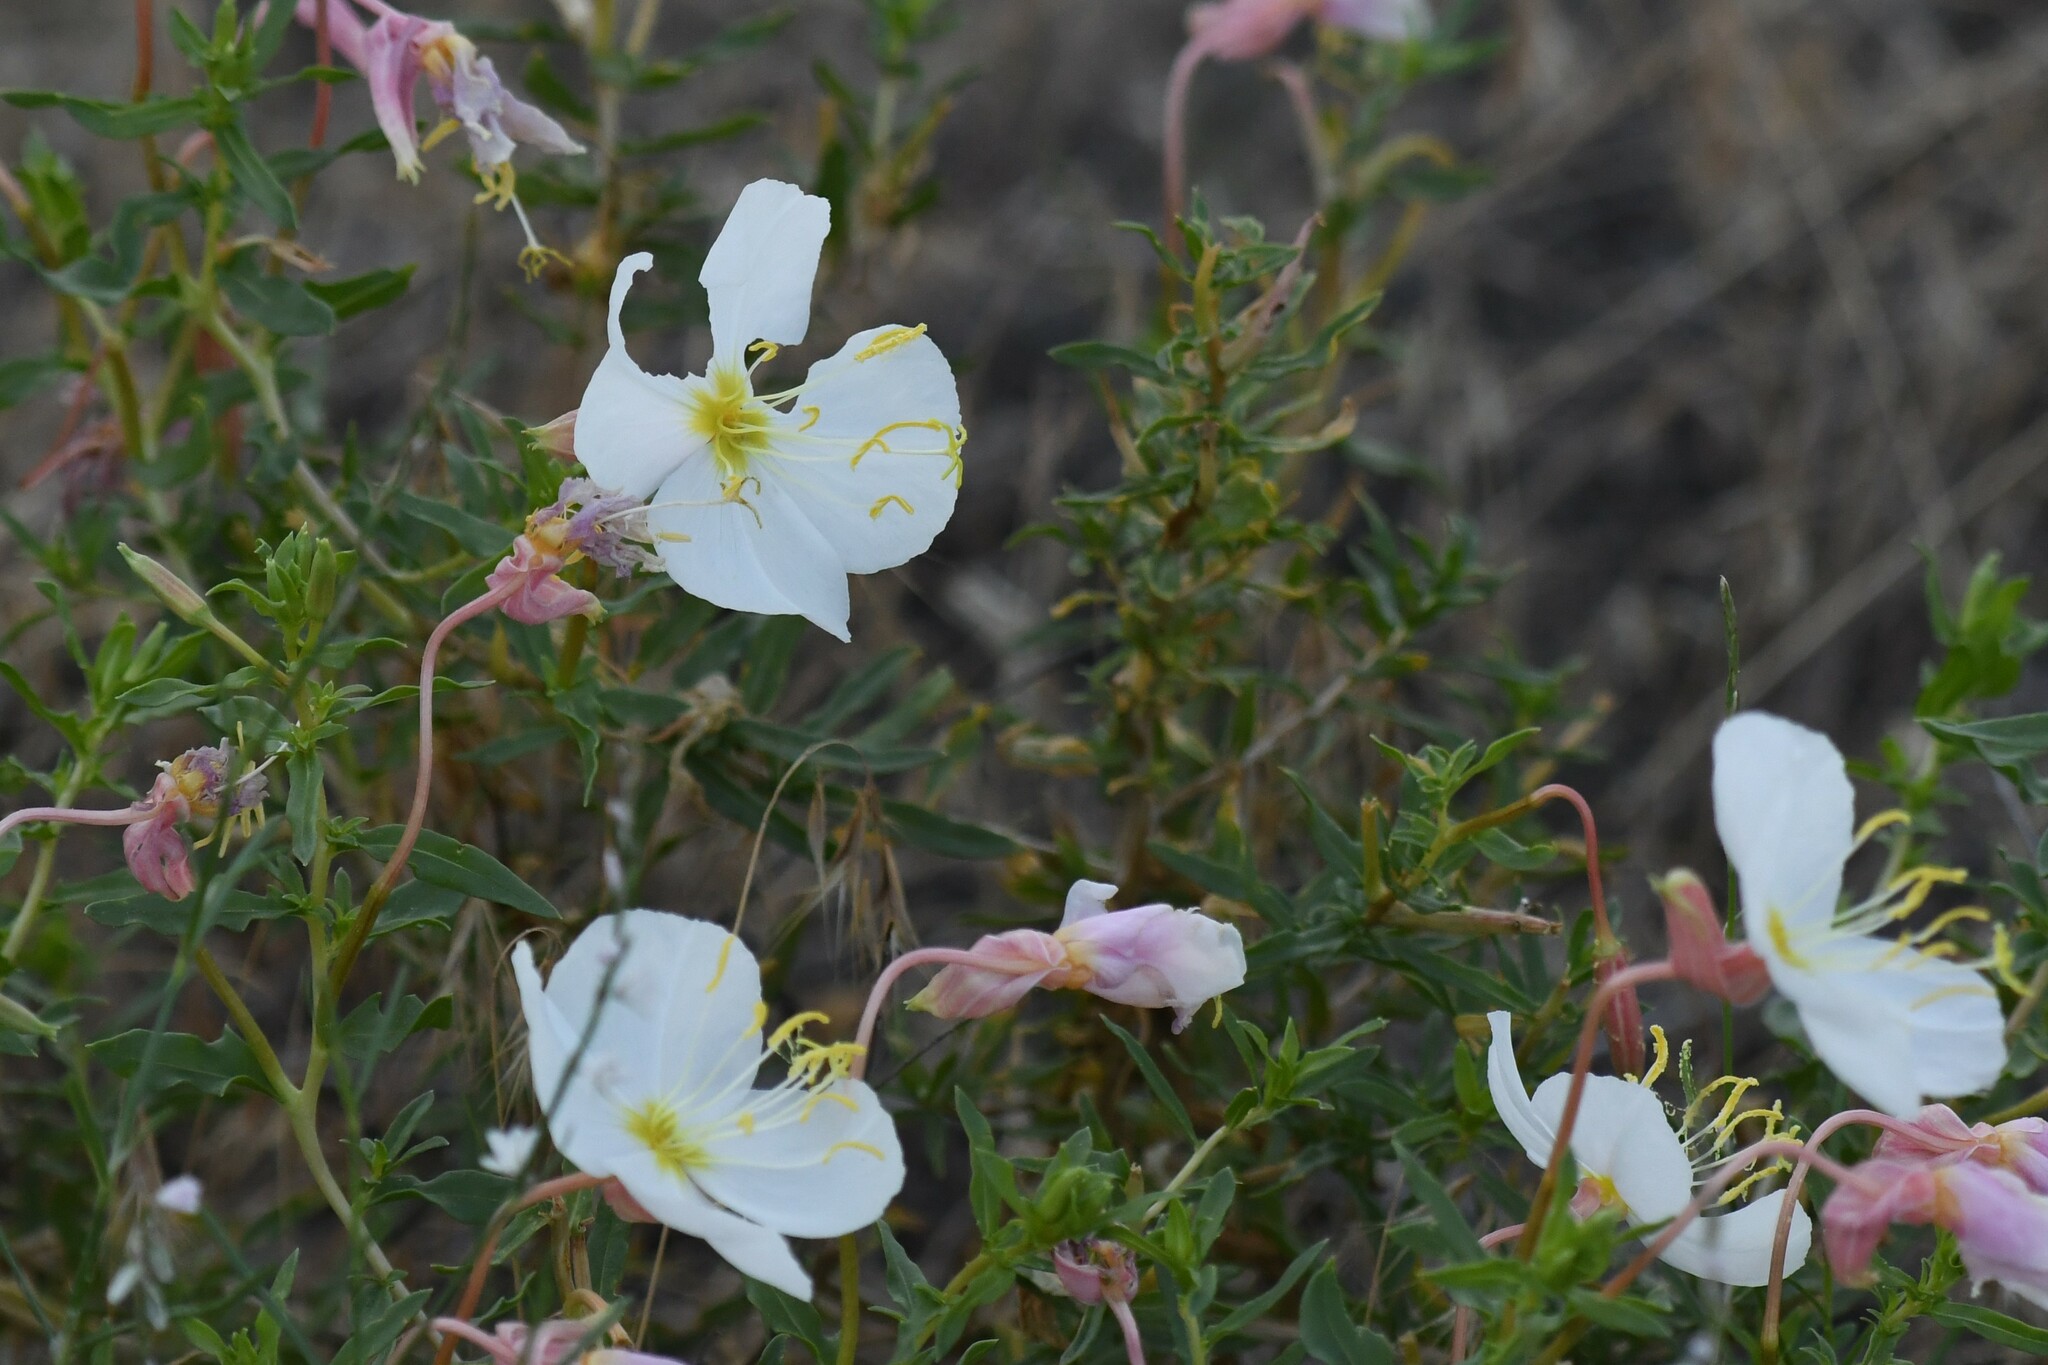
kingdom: Plantae
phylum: Tracheophyta
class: Magnoliopsida
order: Myrtales
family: Onagraceae
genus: Oenothera
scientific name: Oenothera pallida
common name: Pale evening-primrose
